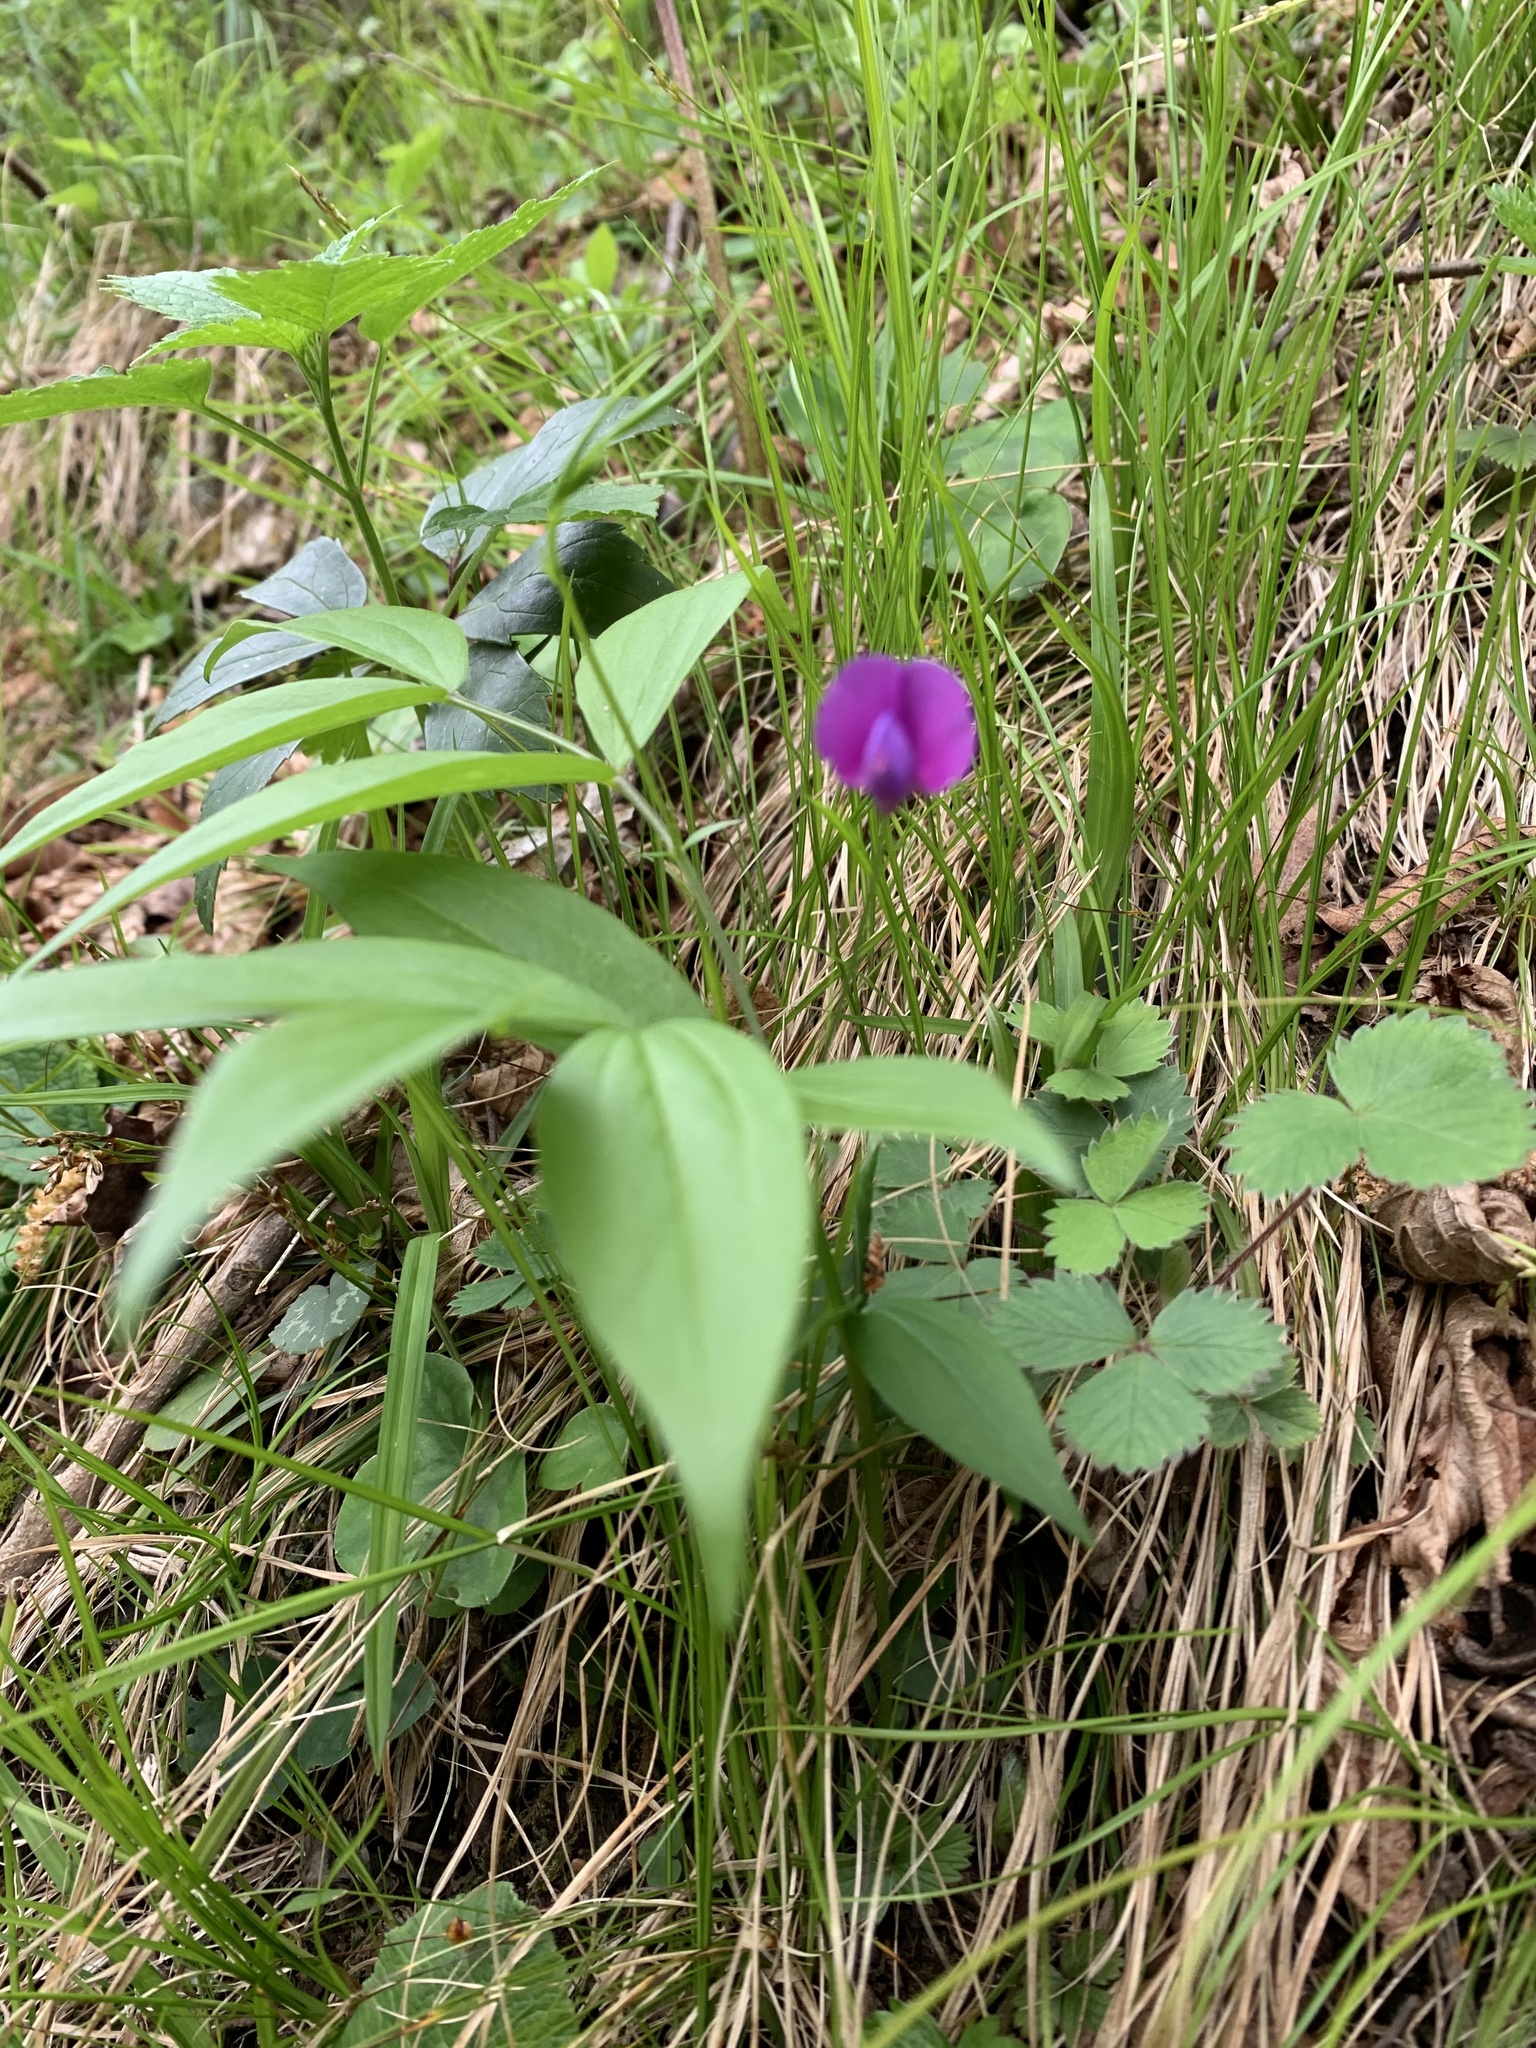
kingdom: Plantae
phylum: Tracheophyta
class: Magnoliopsida
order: Fabales
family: Fabaceae
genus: Lathyrus
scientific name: Lathyrus vernus
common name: Spring pea
